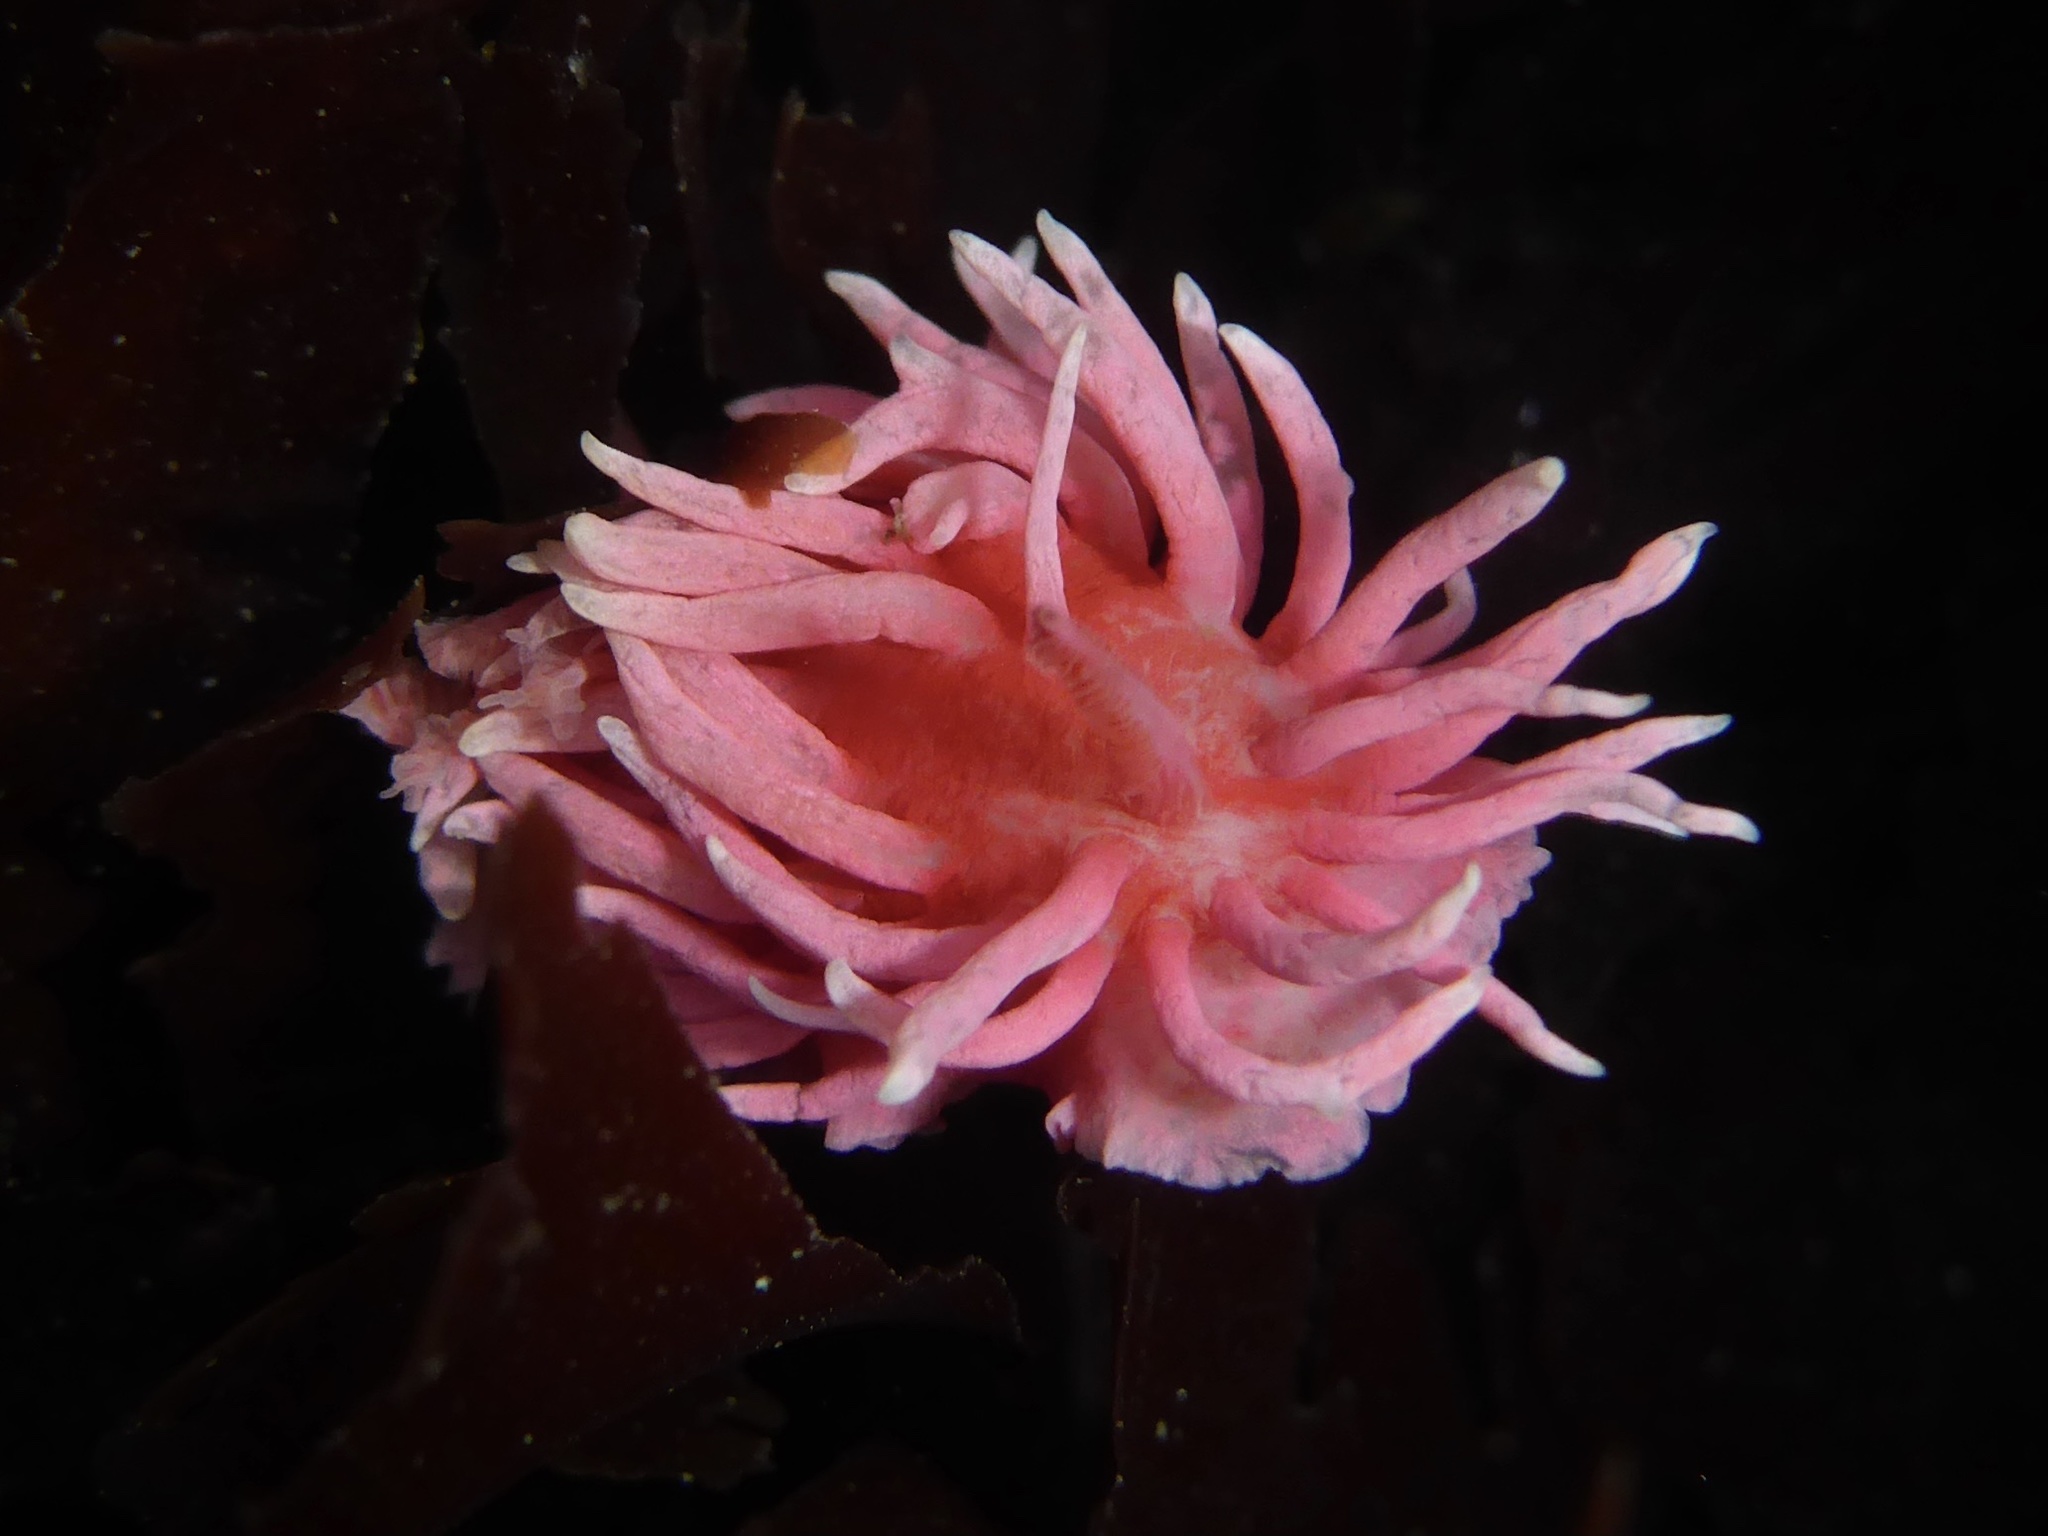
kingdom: Animalia
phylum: Mollusca
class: Gastropoda
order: Nudibranchia
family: Goniodorididae
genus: Okenia
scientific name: Okenia
